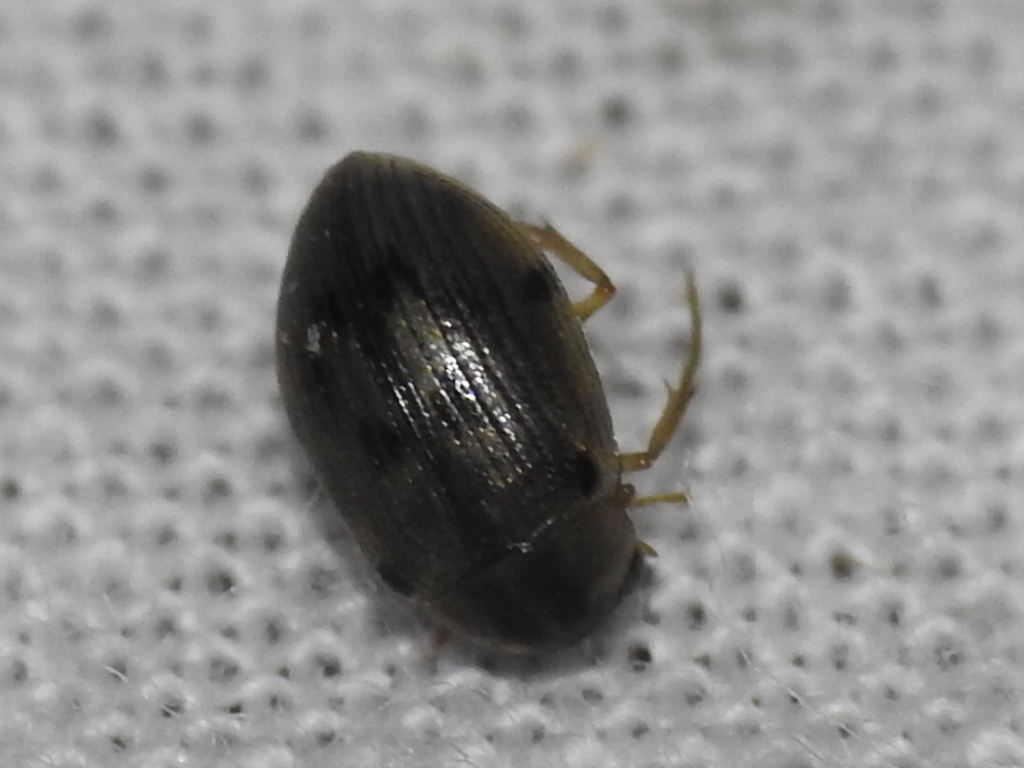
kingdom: Animalia
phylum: Arthropoda
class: Insecta
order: Coleoptera
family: Hydrophilidae
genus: Berosus
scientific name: Berosus
